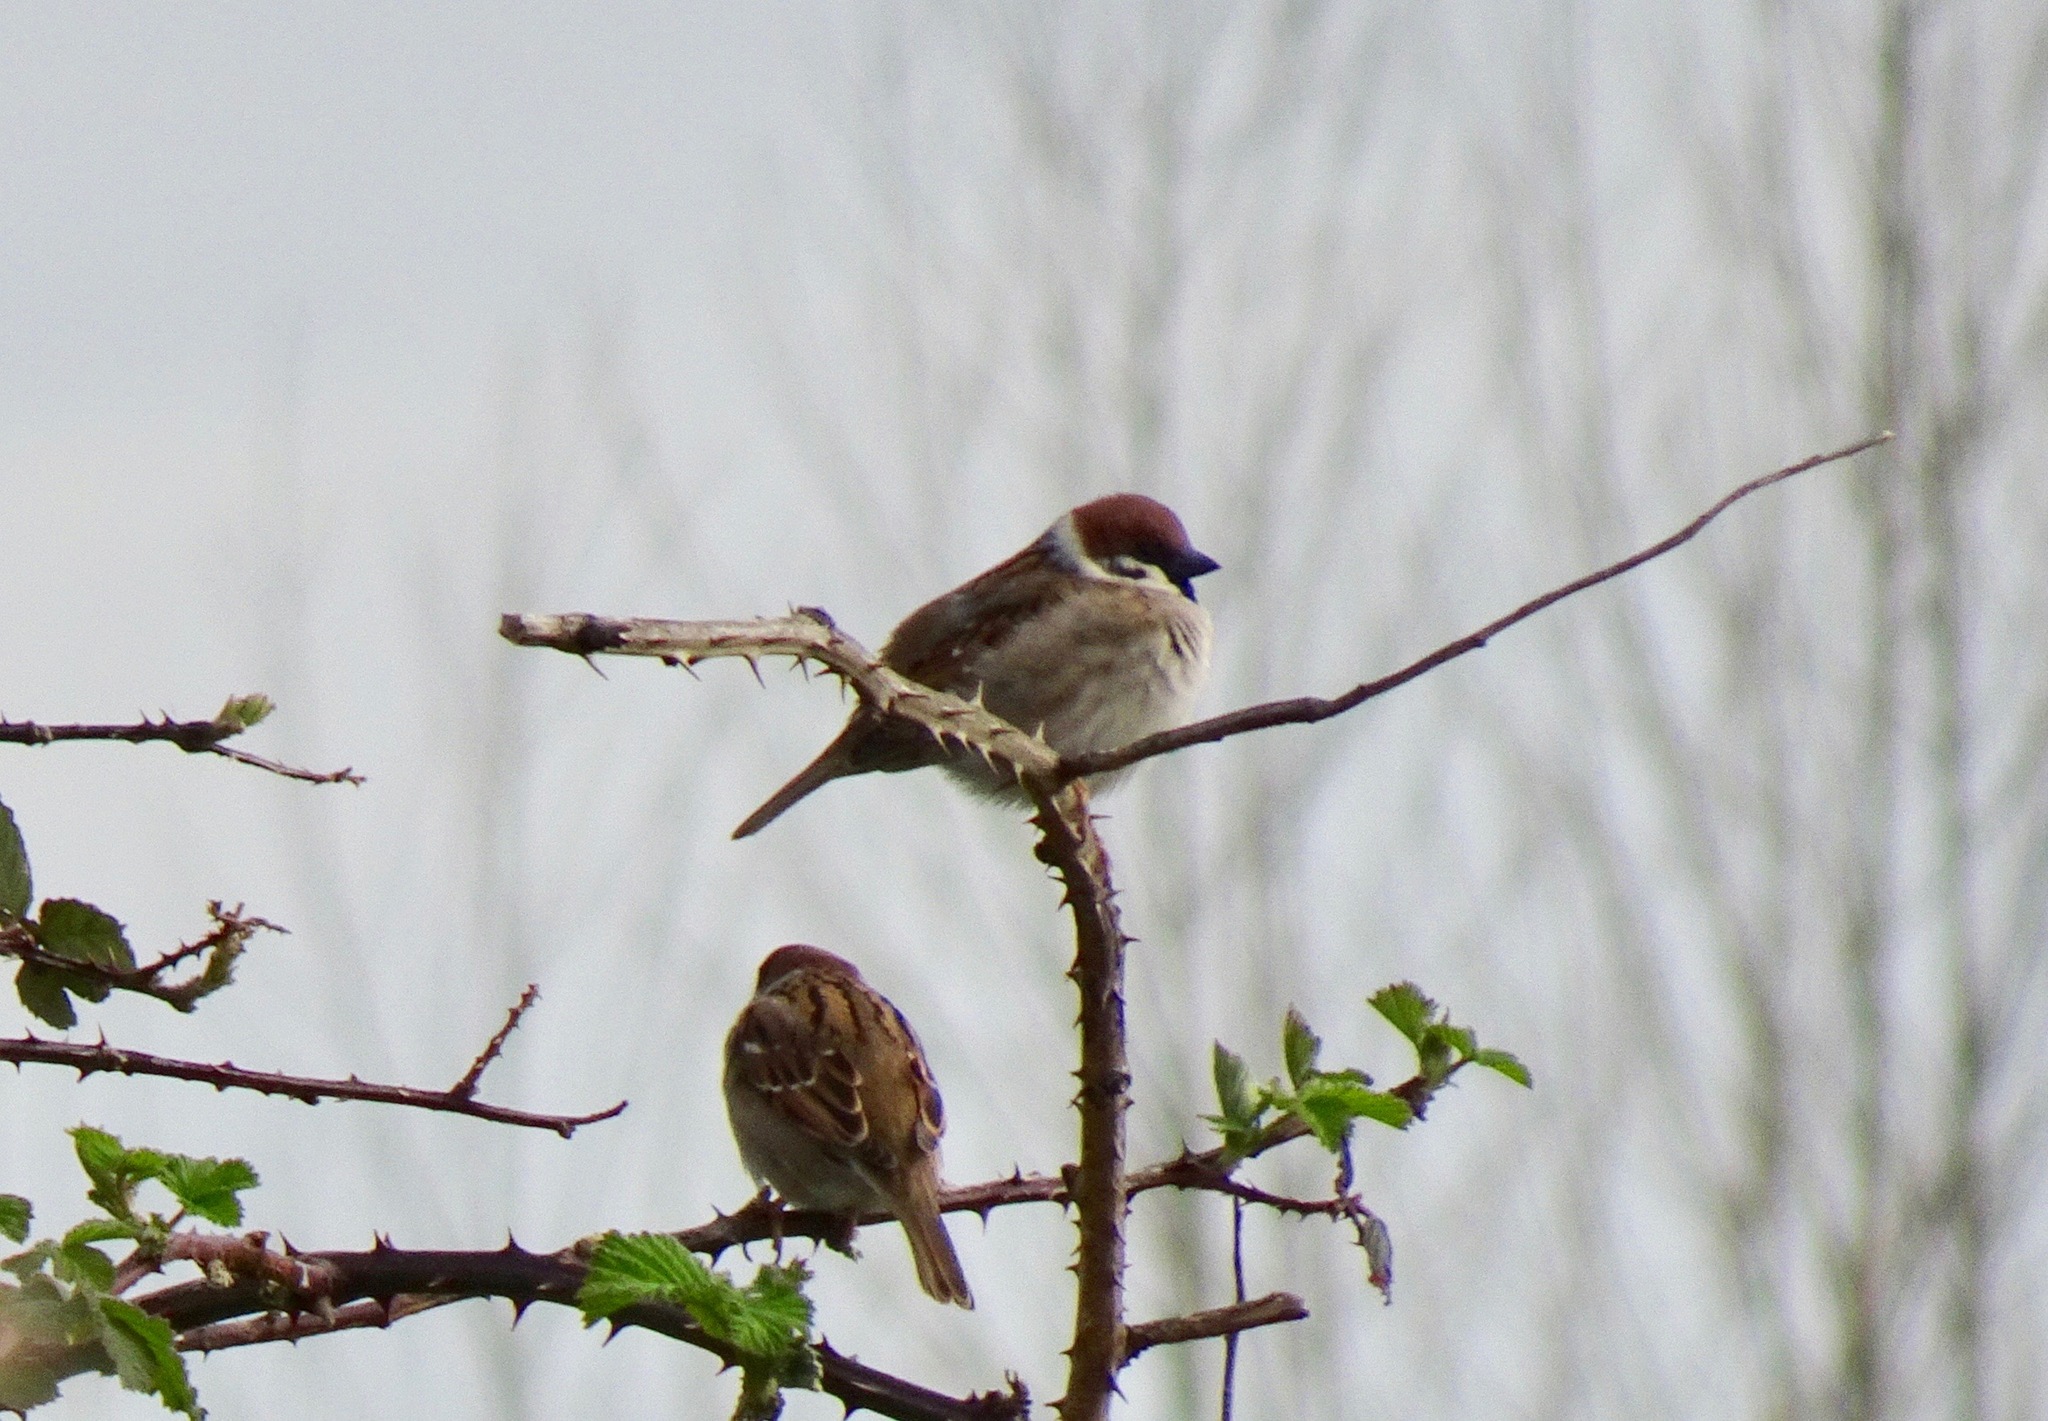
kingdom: Animalia
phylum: Chordata
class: Aves
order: Passeriformes
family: Passeridae
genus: Passer
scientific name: Passer montanus
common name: Eurasian tree sparrow
